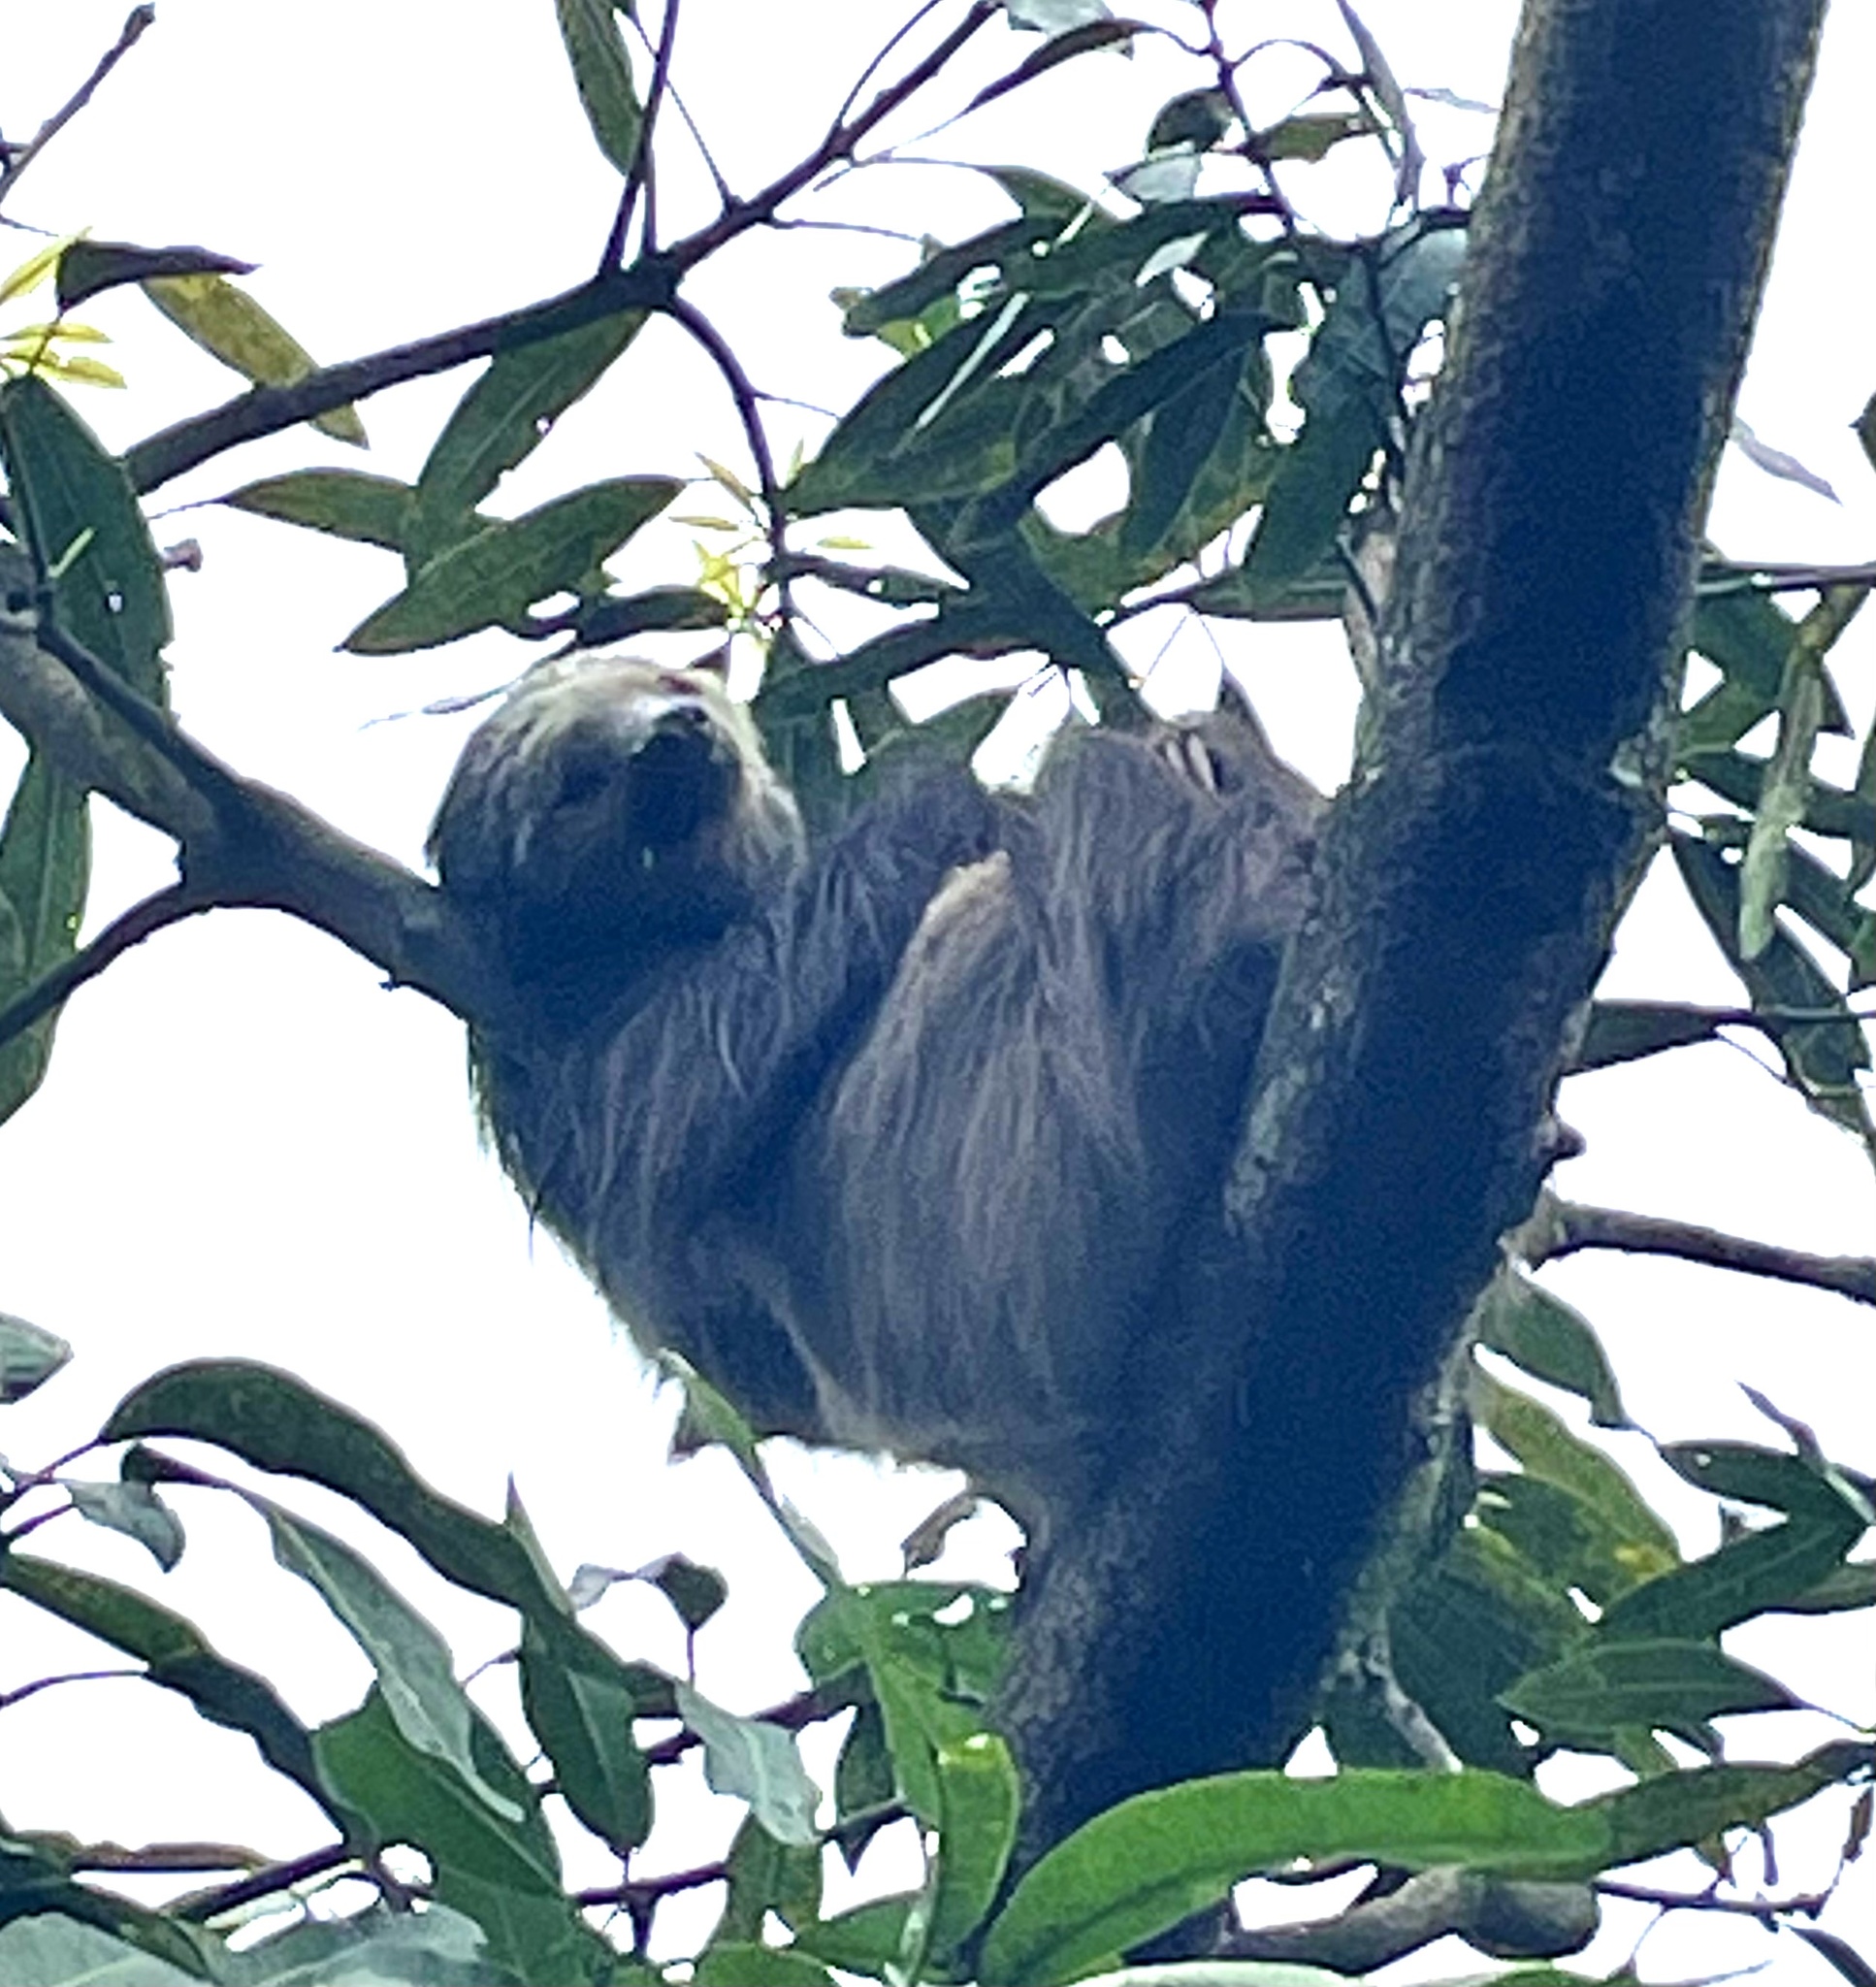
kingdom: Animalia
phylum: Chordata
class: Mammalia
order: Pilosa
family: Megalonychidae
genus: Choloepus
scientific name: Choloepus hoffmanni
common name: Hoffmann's two-toed sloth
